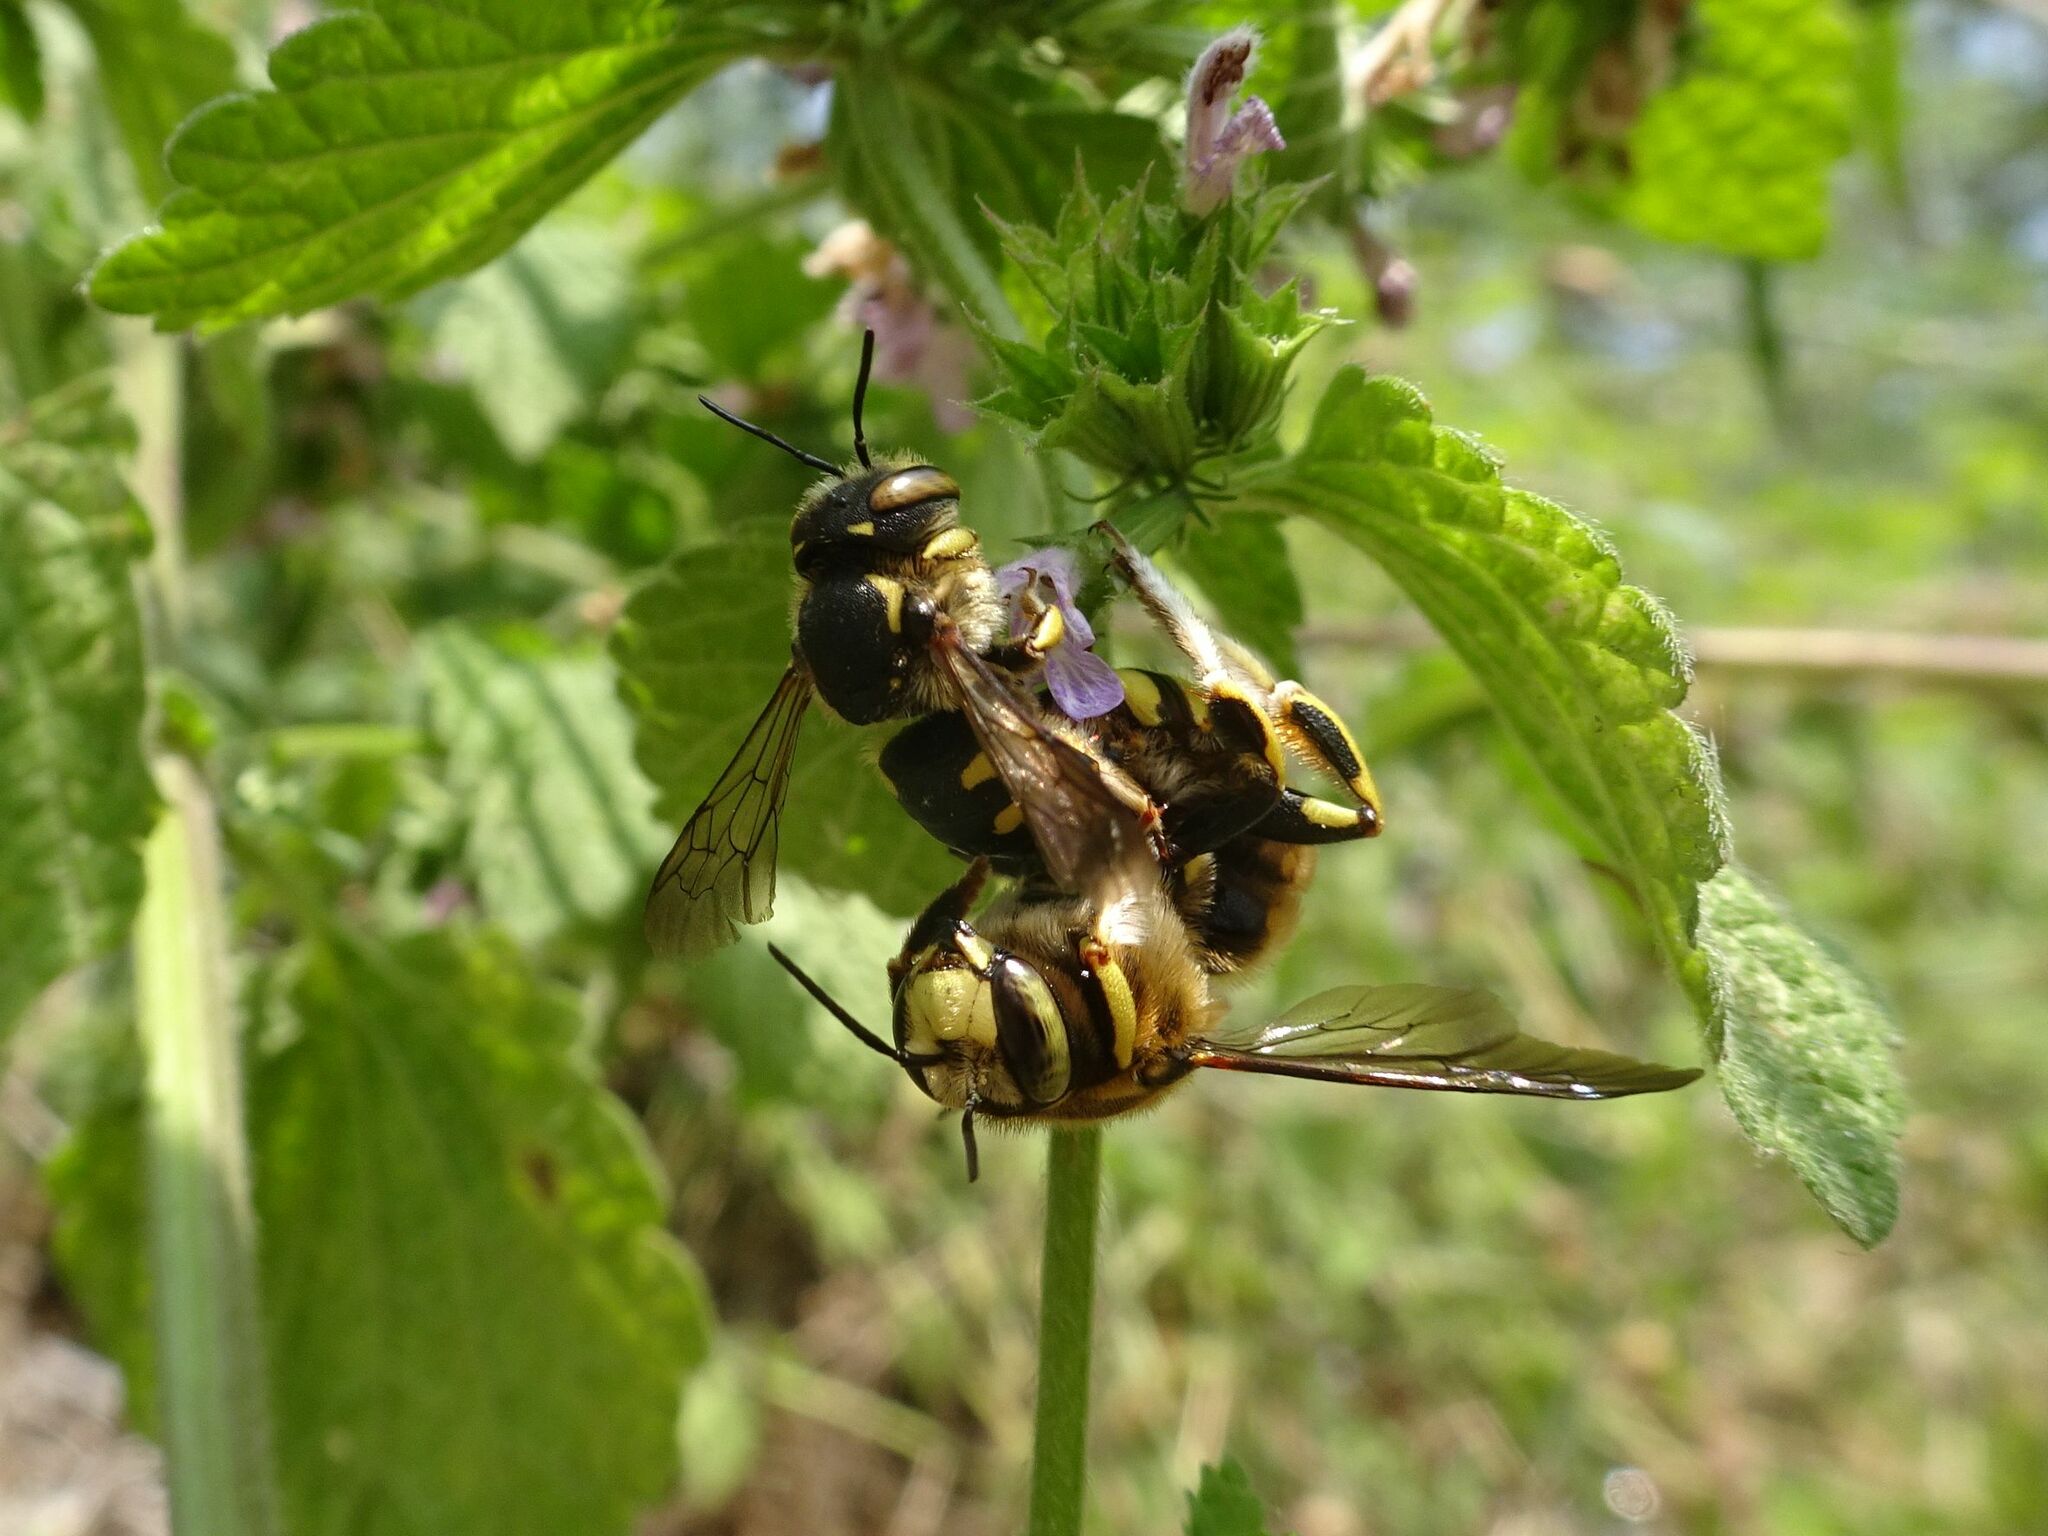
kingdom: Animalia
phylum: Arthropoda
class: Insecta
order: Hymenoptera
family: Megachilidae
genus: Anthidium
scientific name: Anthidium florentinum
